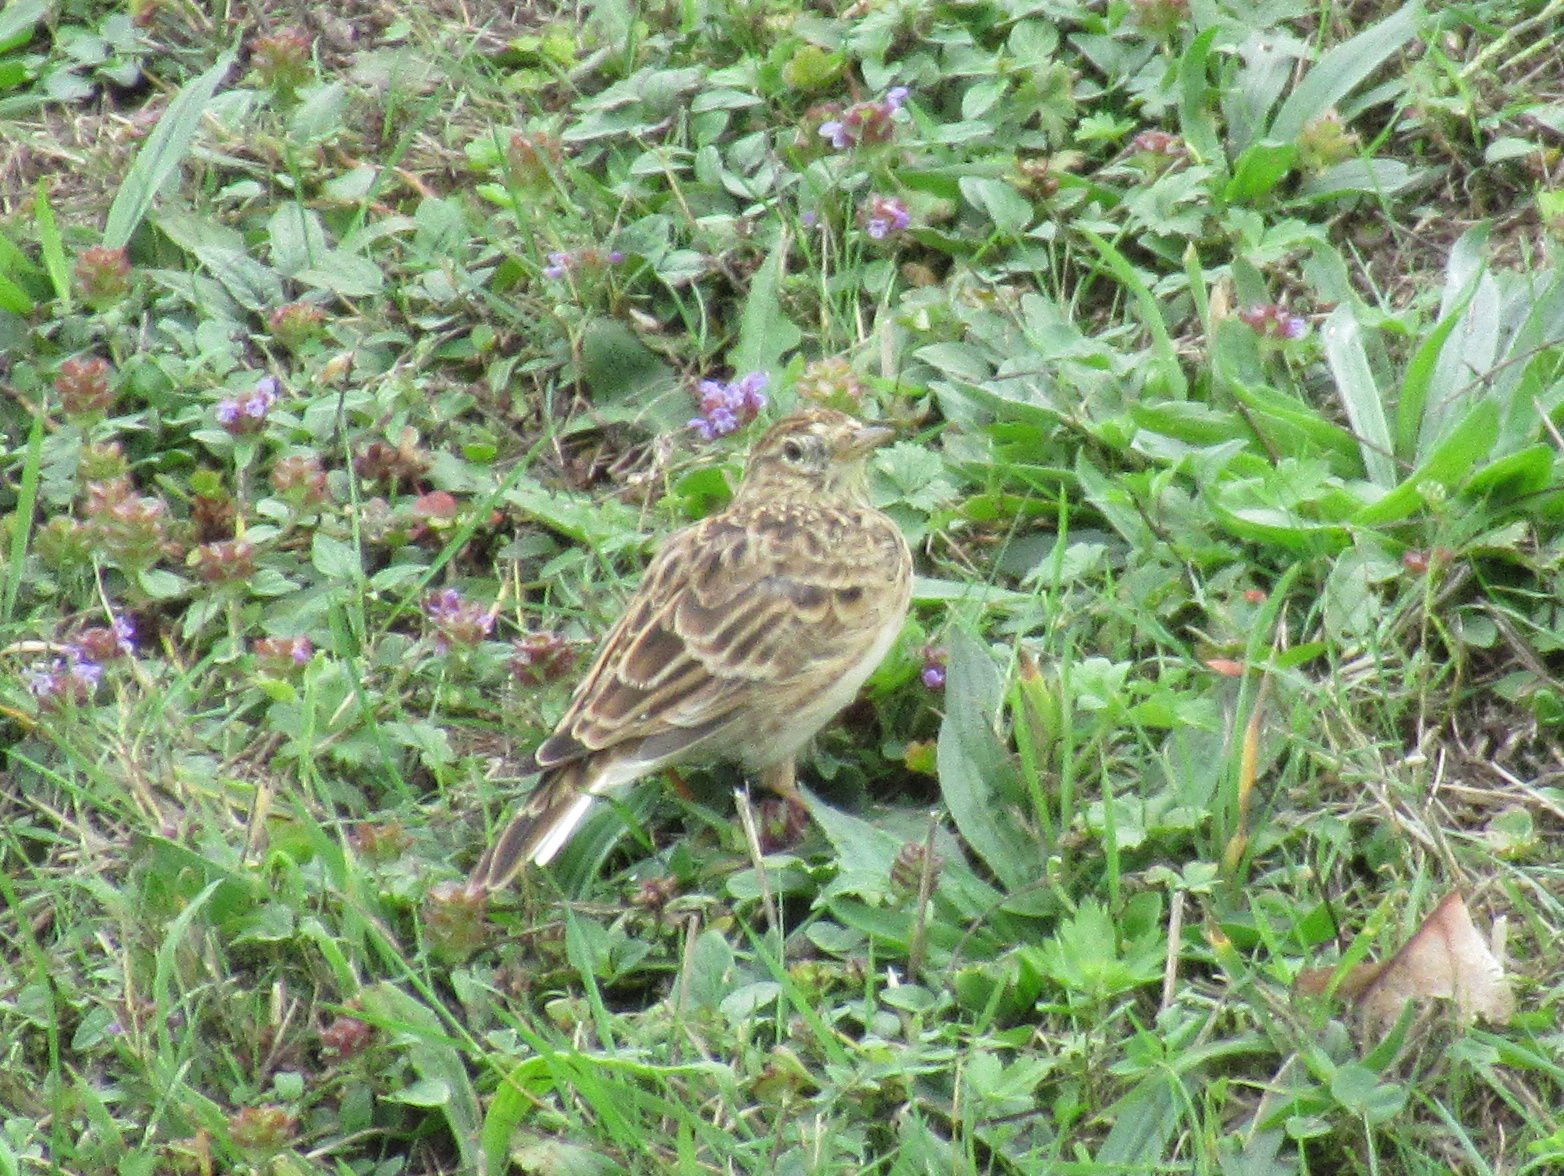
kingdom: Animalia
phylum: Chordata
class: Aves
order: Passeriformes
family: Alaudidae
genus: Alauda
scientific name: Alauda arvensis
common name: Eurasian skylark
